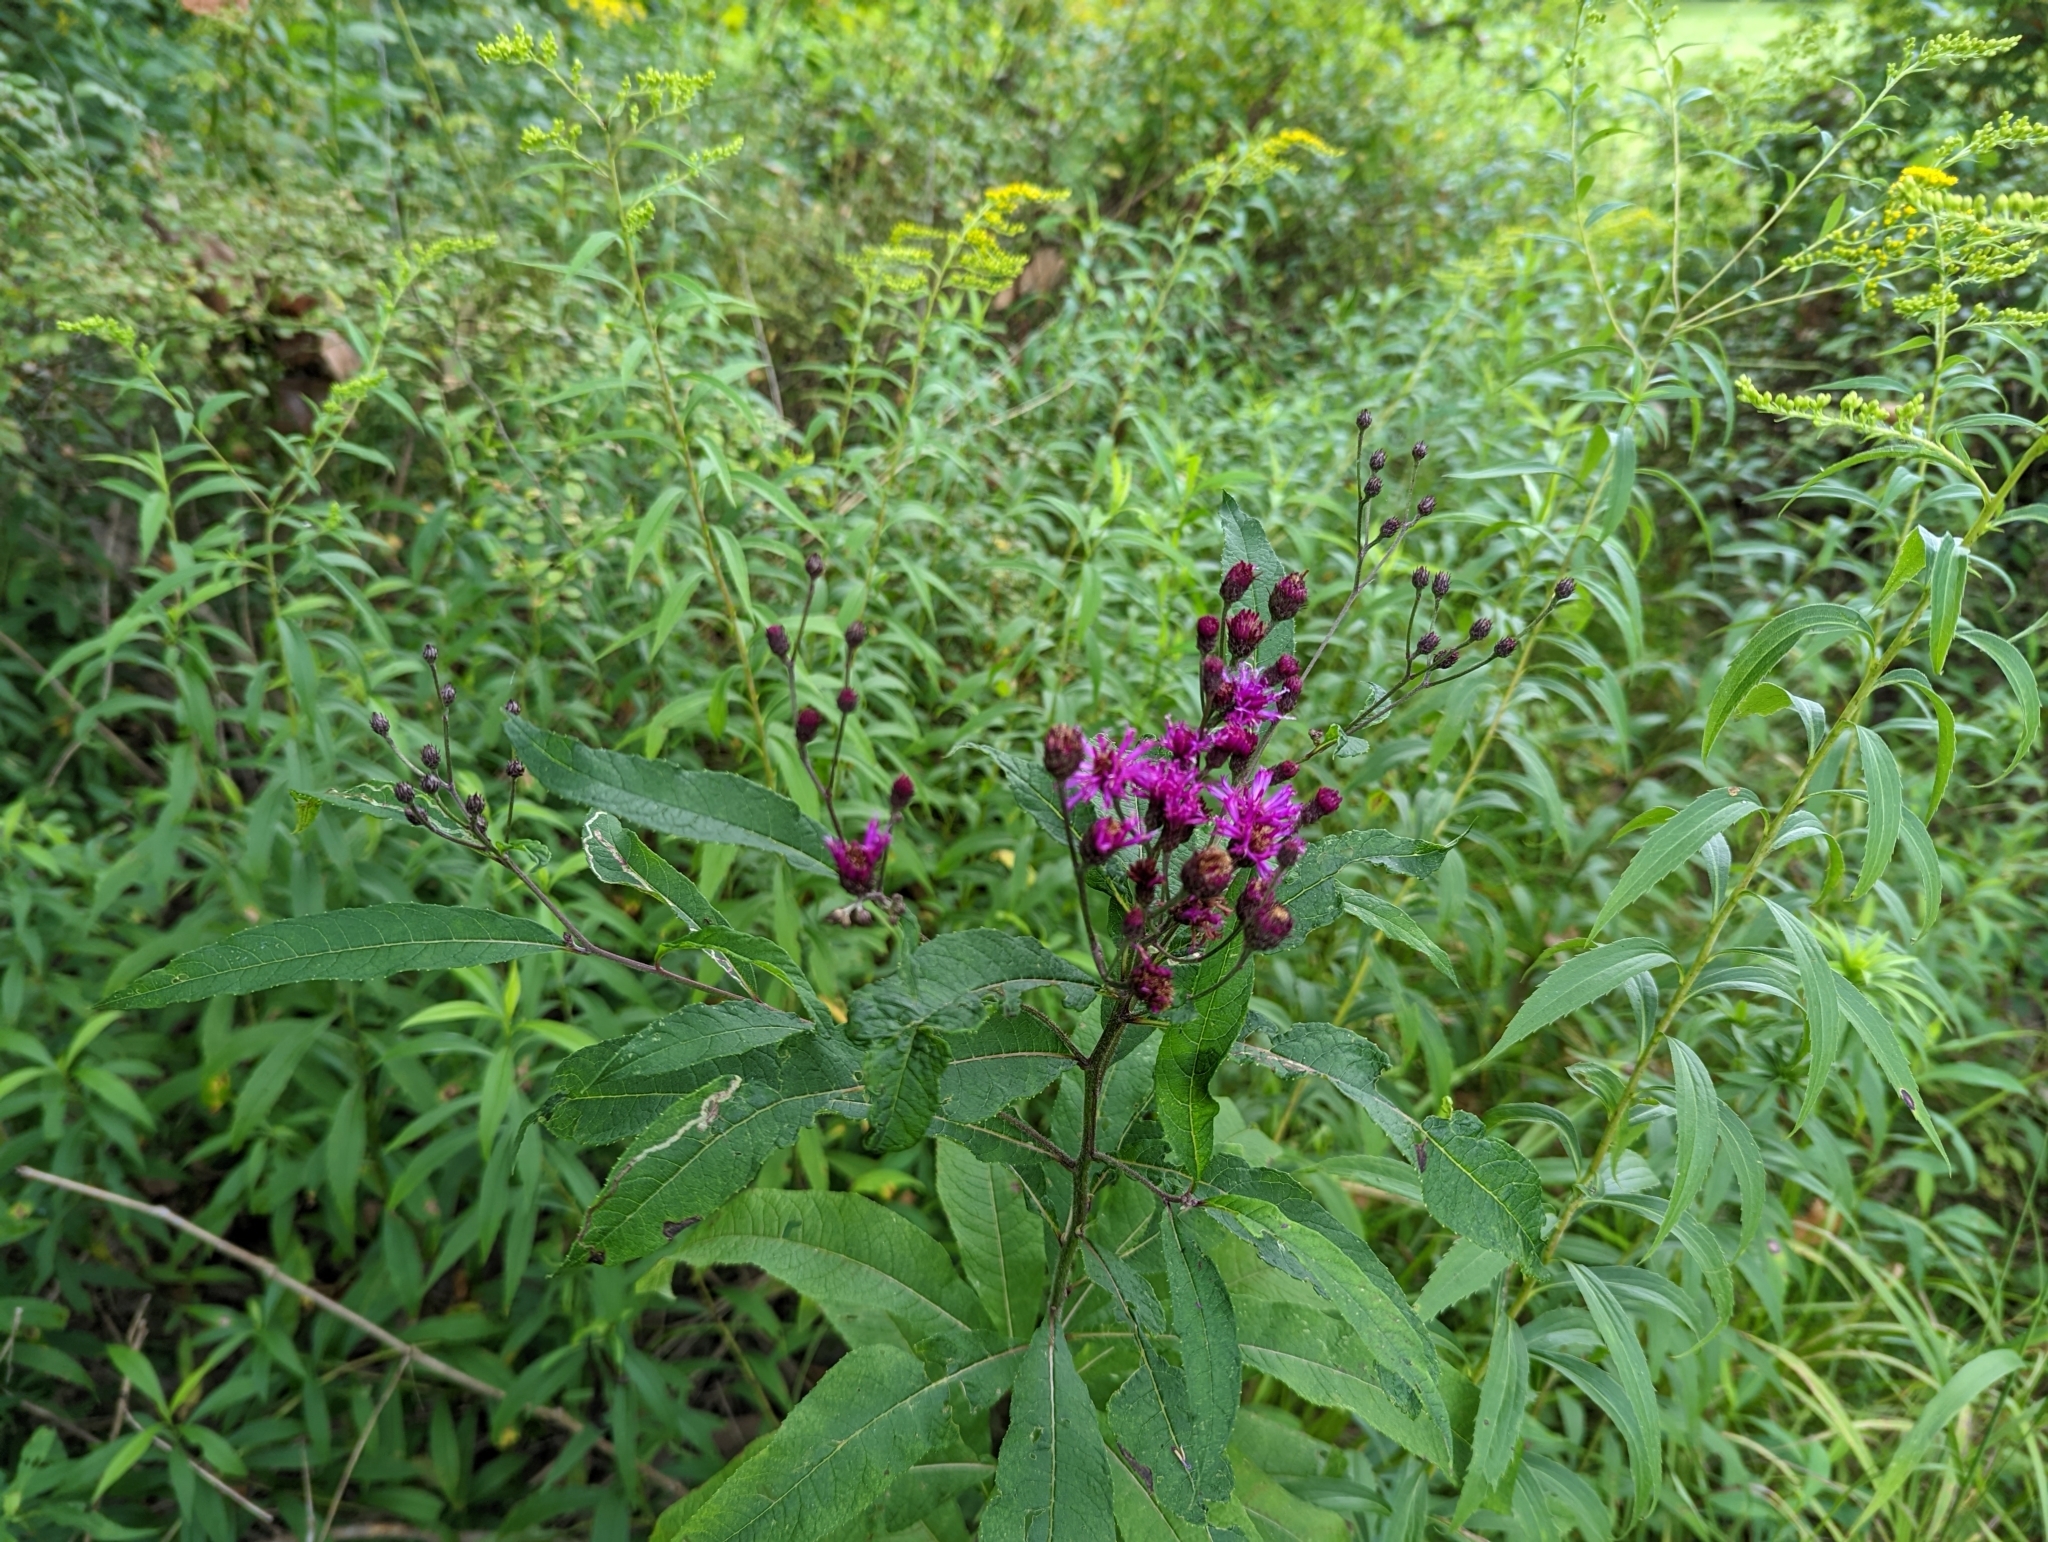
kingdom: Plantae
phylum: Tracheophyta
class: Magnoliopsida
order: Asterales
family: Asteraceae
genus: Vernonia
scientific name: Vernonia noveboracensis
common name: New york ironweed
